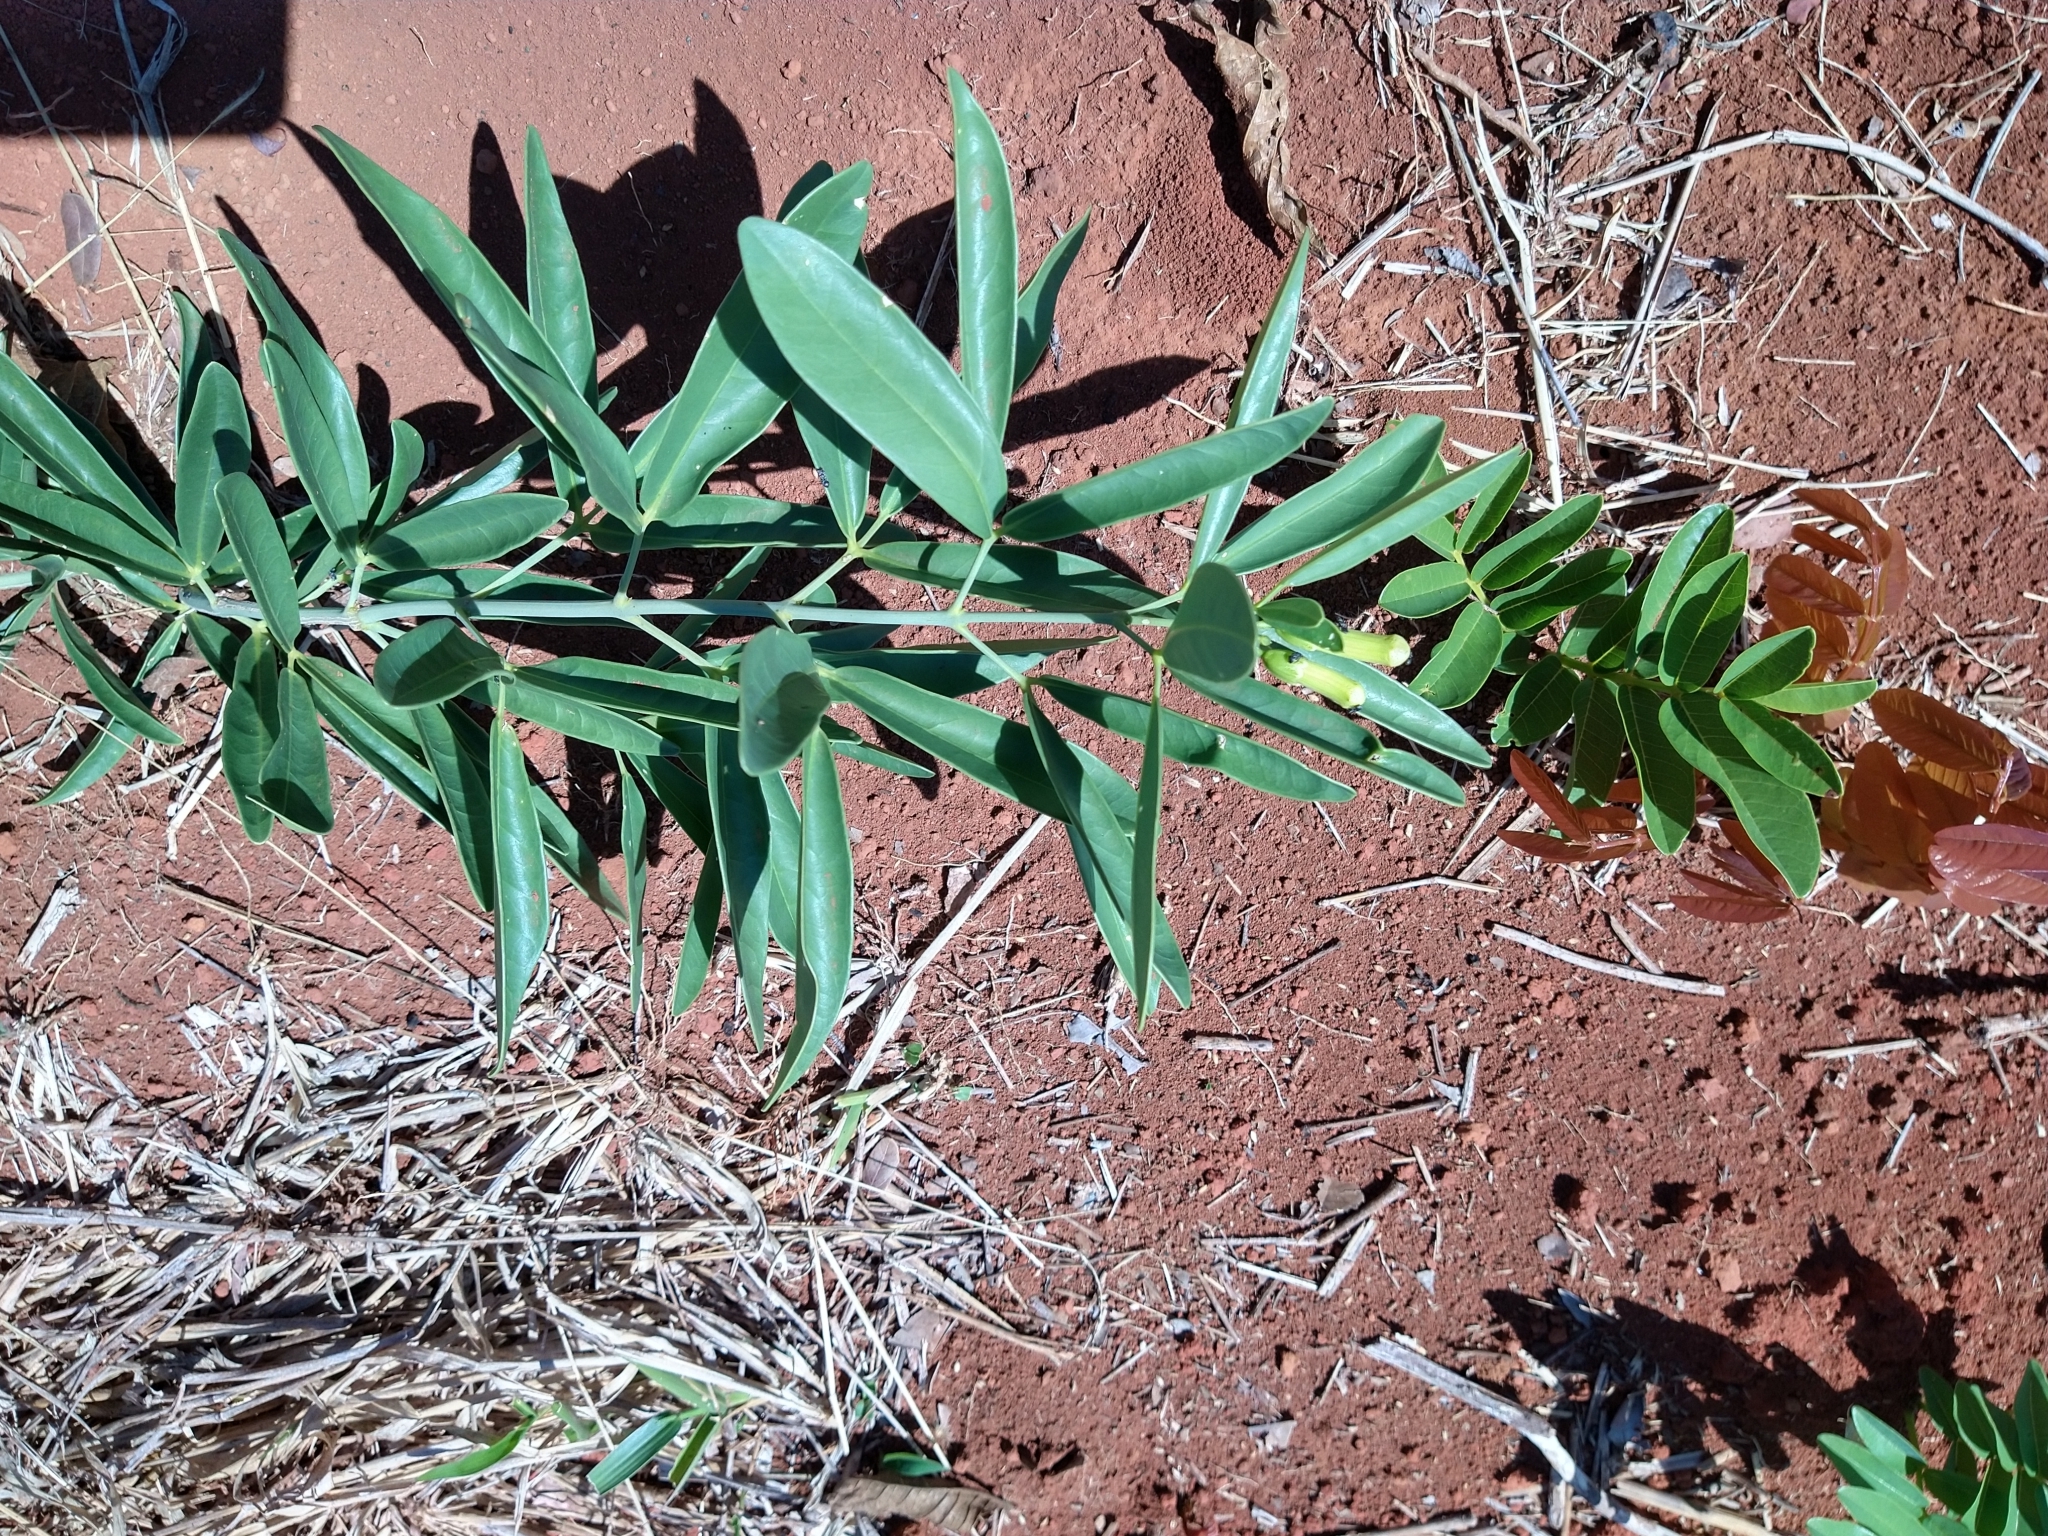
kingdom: Plantae
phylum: Tracheophyta
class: Magnoliopsida
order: Lamiales
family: Bignoniaceae
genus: Anemopaegma
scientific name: Anemopaegma glaucum
